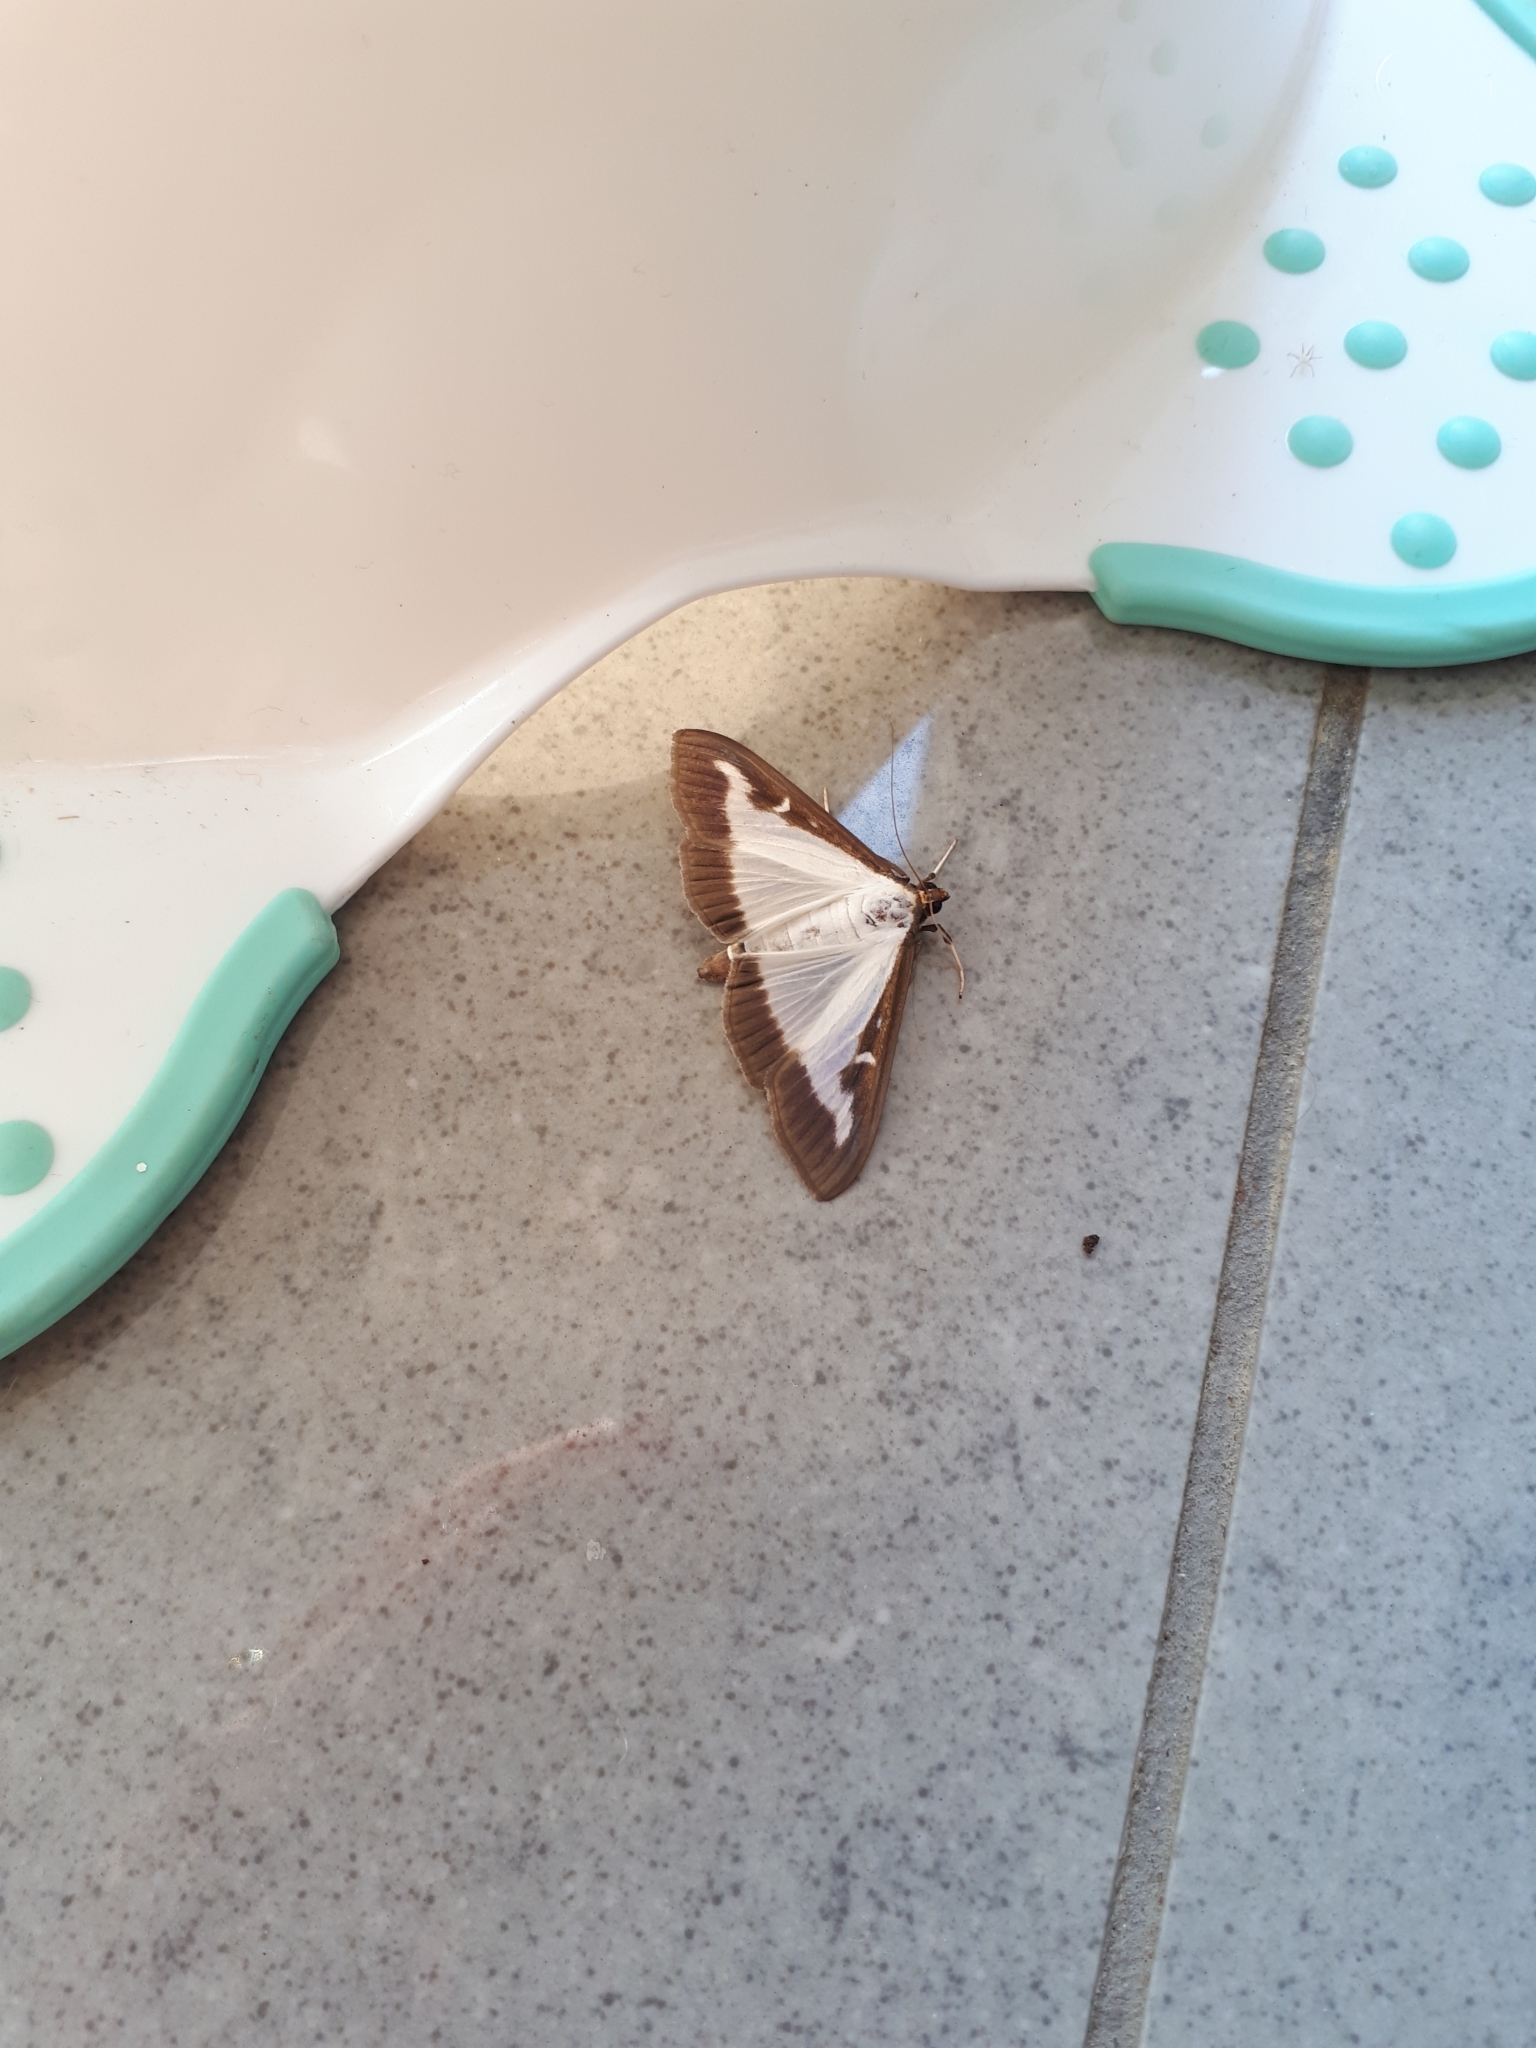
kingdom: Animalia
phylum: Arthropoda
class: Insecta
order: Lepidoptera
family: Crambidae
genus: Cydalima
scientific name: Cydalima perspectalis
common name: Box tree moth
